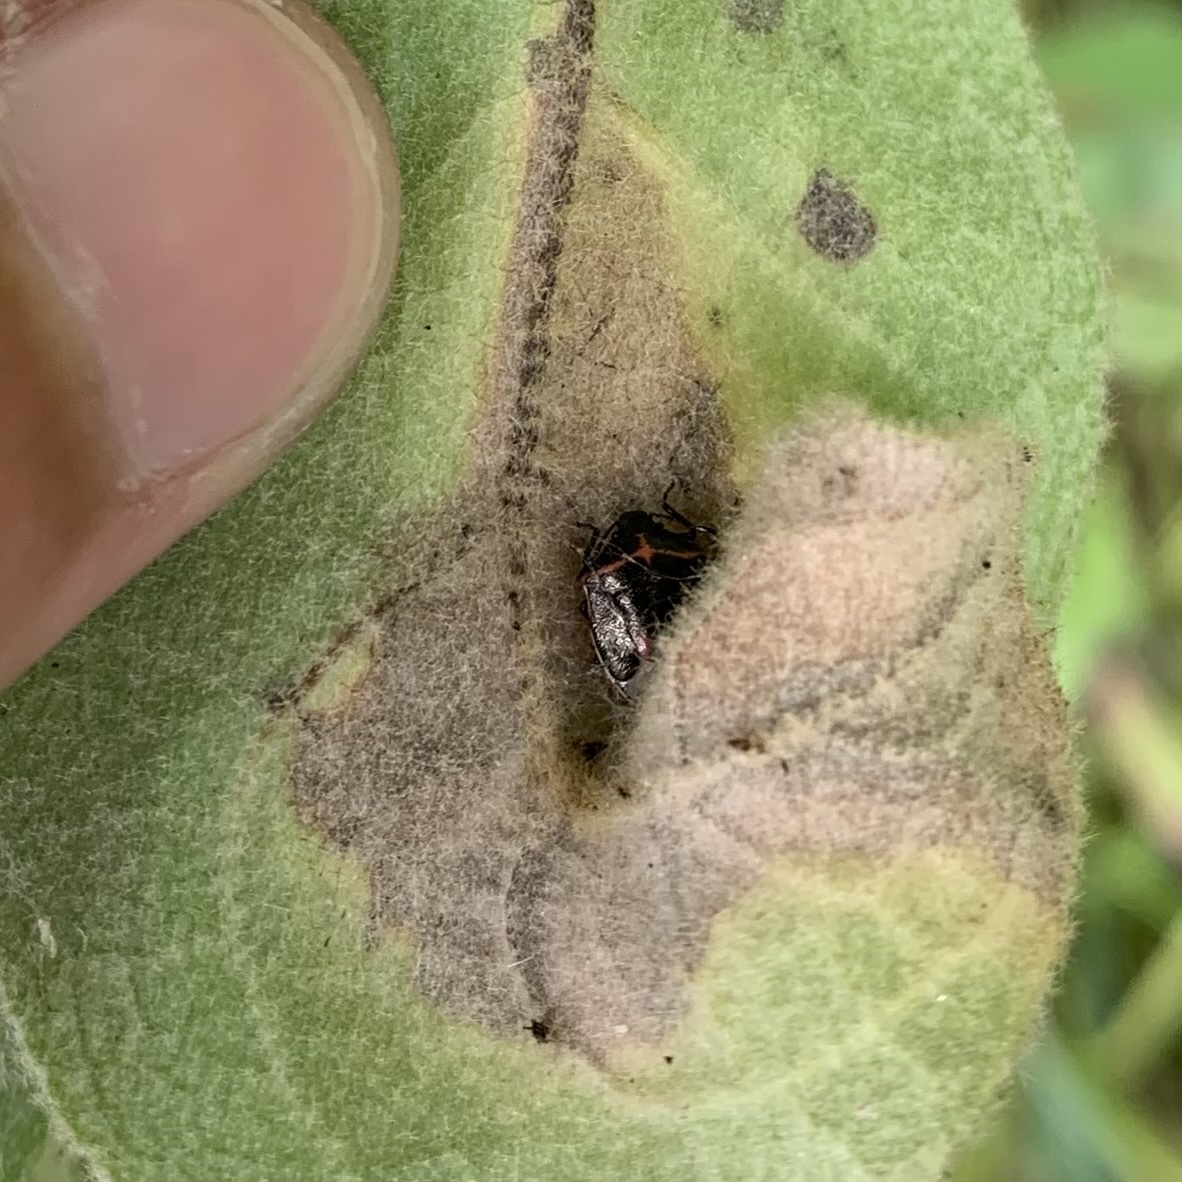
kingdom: Animalia
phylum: Arthropoda
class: Insecta
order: Hemiptera
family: Pentatomidae
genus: Cosmopepla
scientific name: Cosmopepla lintneriana
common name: Twice-stabbed stink bug
